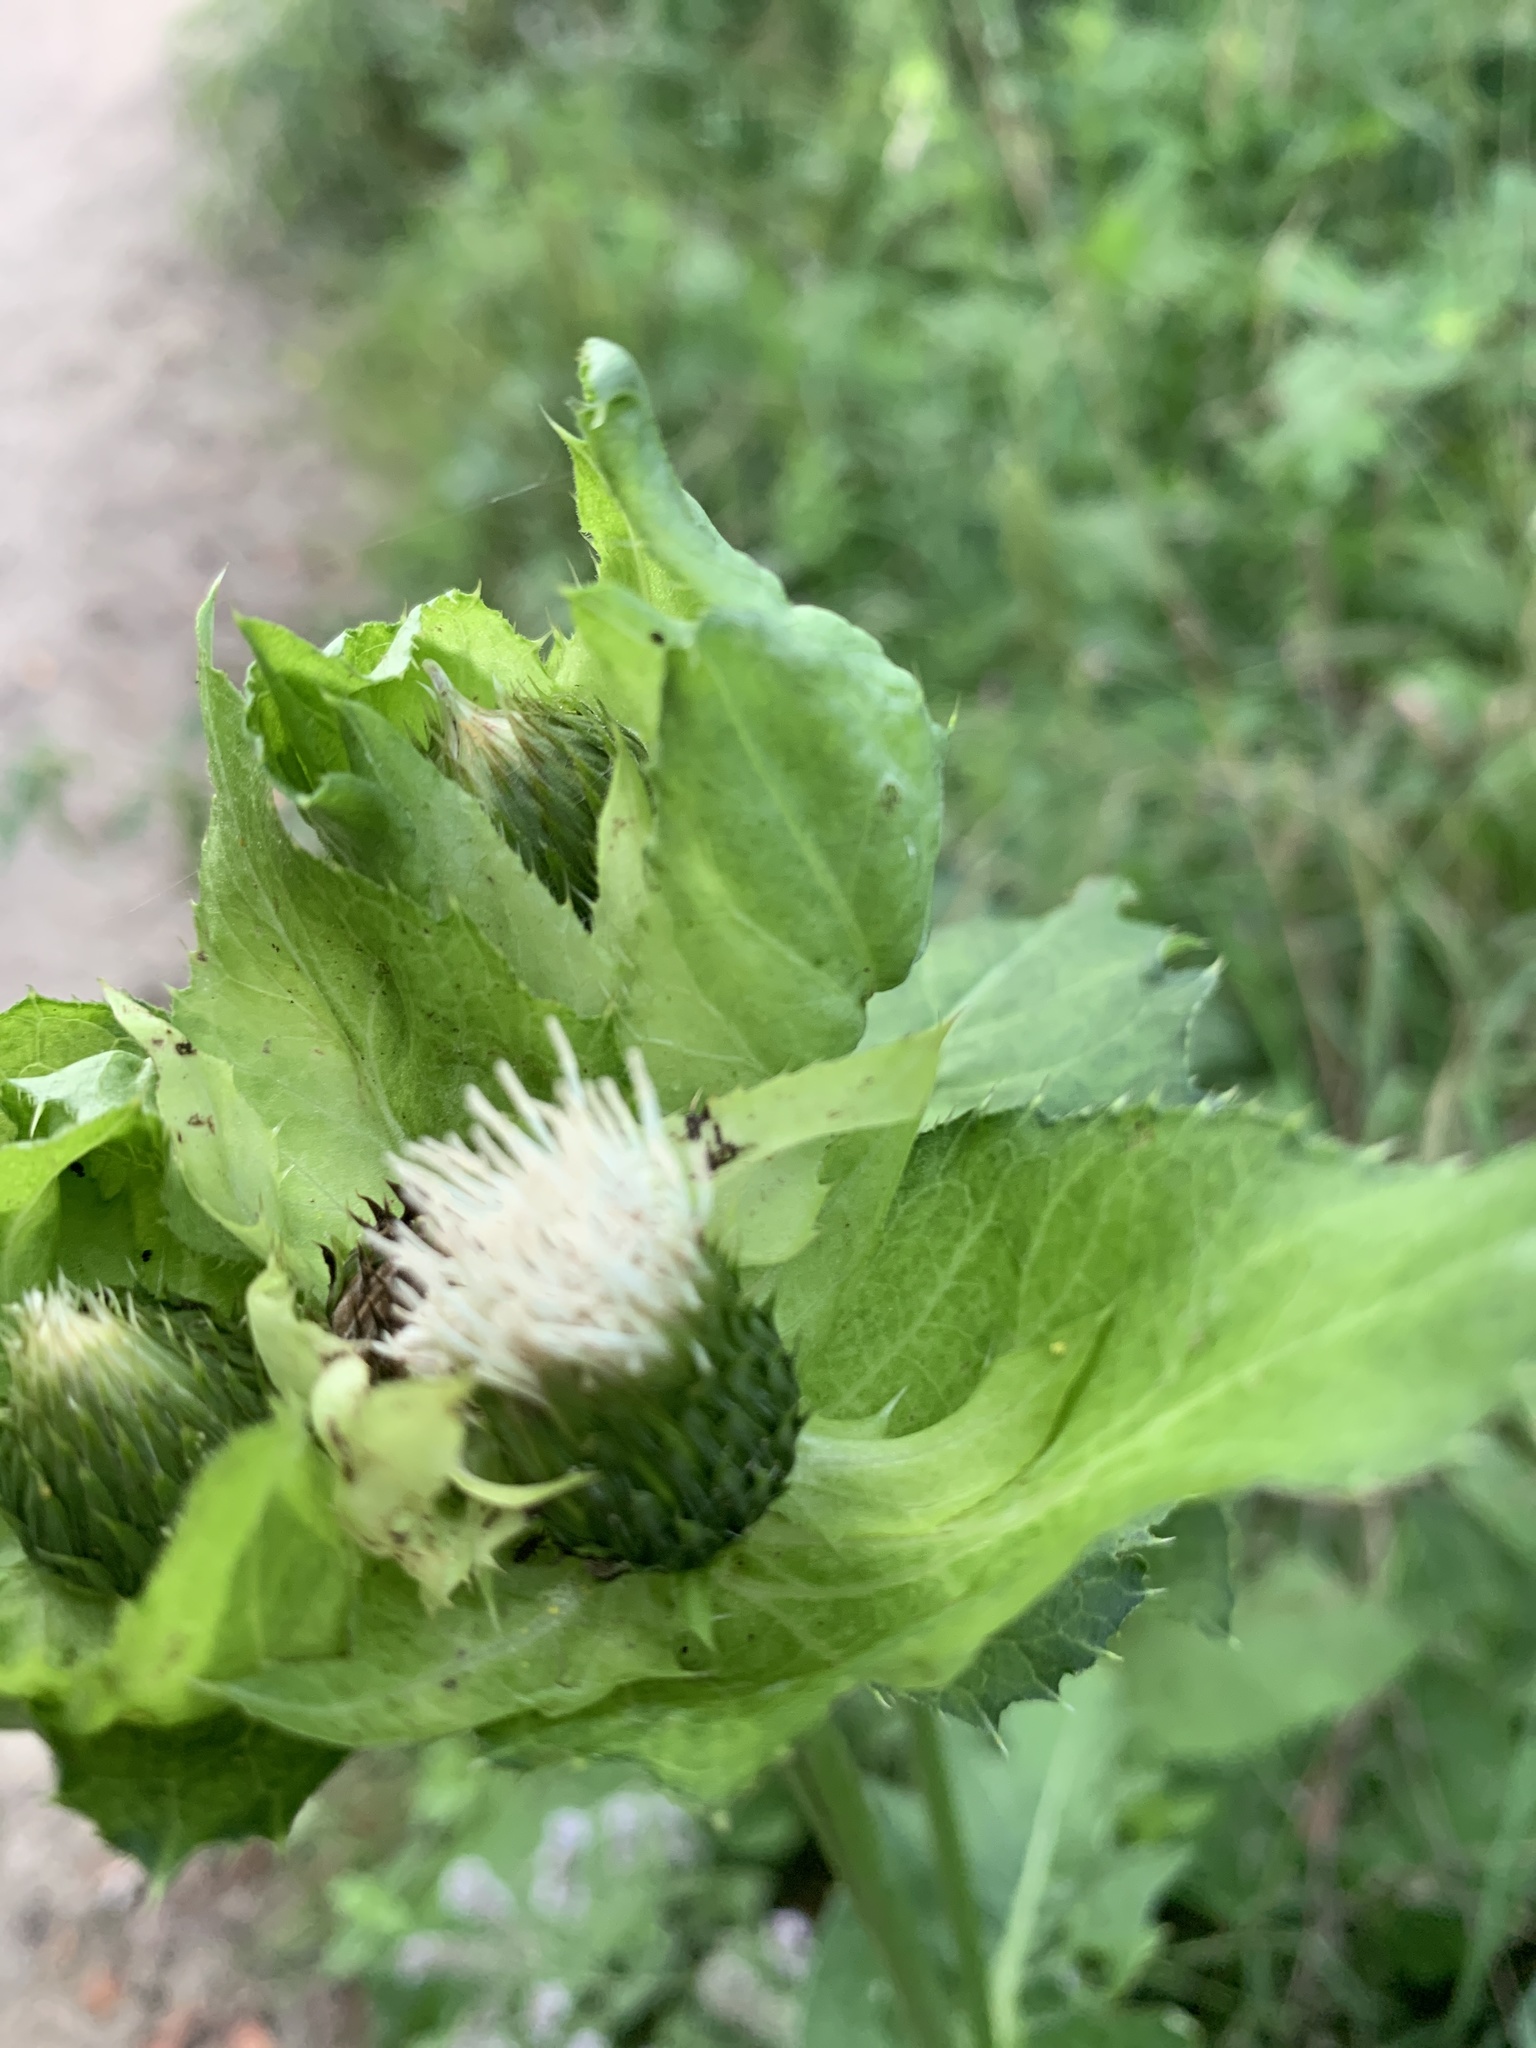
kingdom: Plantae
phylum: Tracheophyta
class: Magnoliopsida
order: Asterales
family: Asteraceae
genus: Cirsium
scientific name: Cirsium oleraceum
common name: Cabbage thistle
